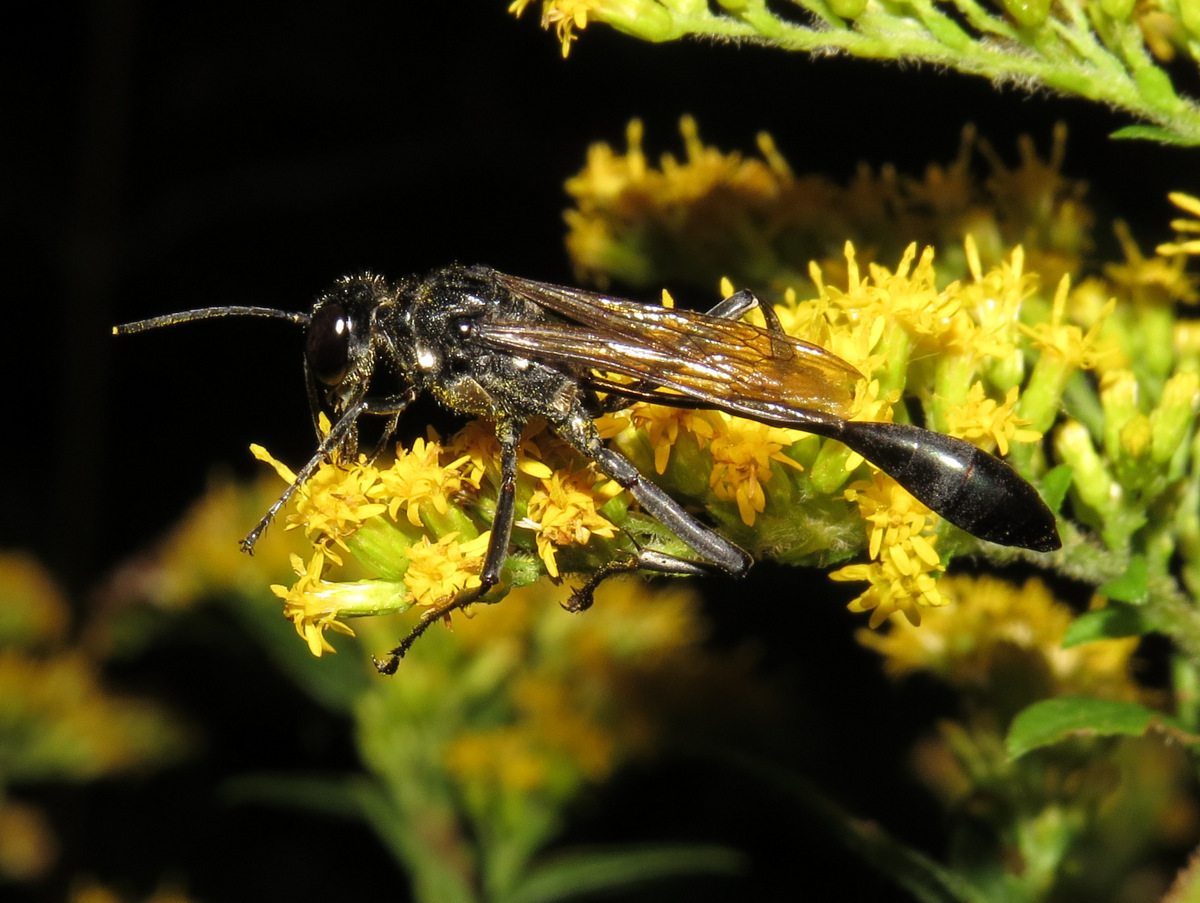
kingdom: Animalia
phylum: Arthropoda
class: Insecta
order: Hymenoptera
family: Sphecidae
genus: Eremnophila
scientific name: Eremnophila aureonotata
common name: Gold-marked thread-waisted wasp
